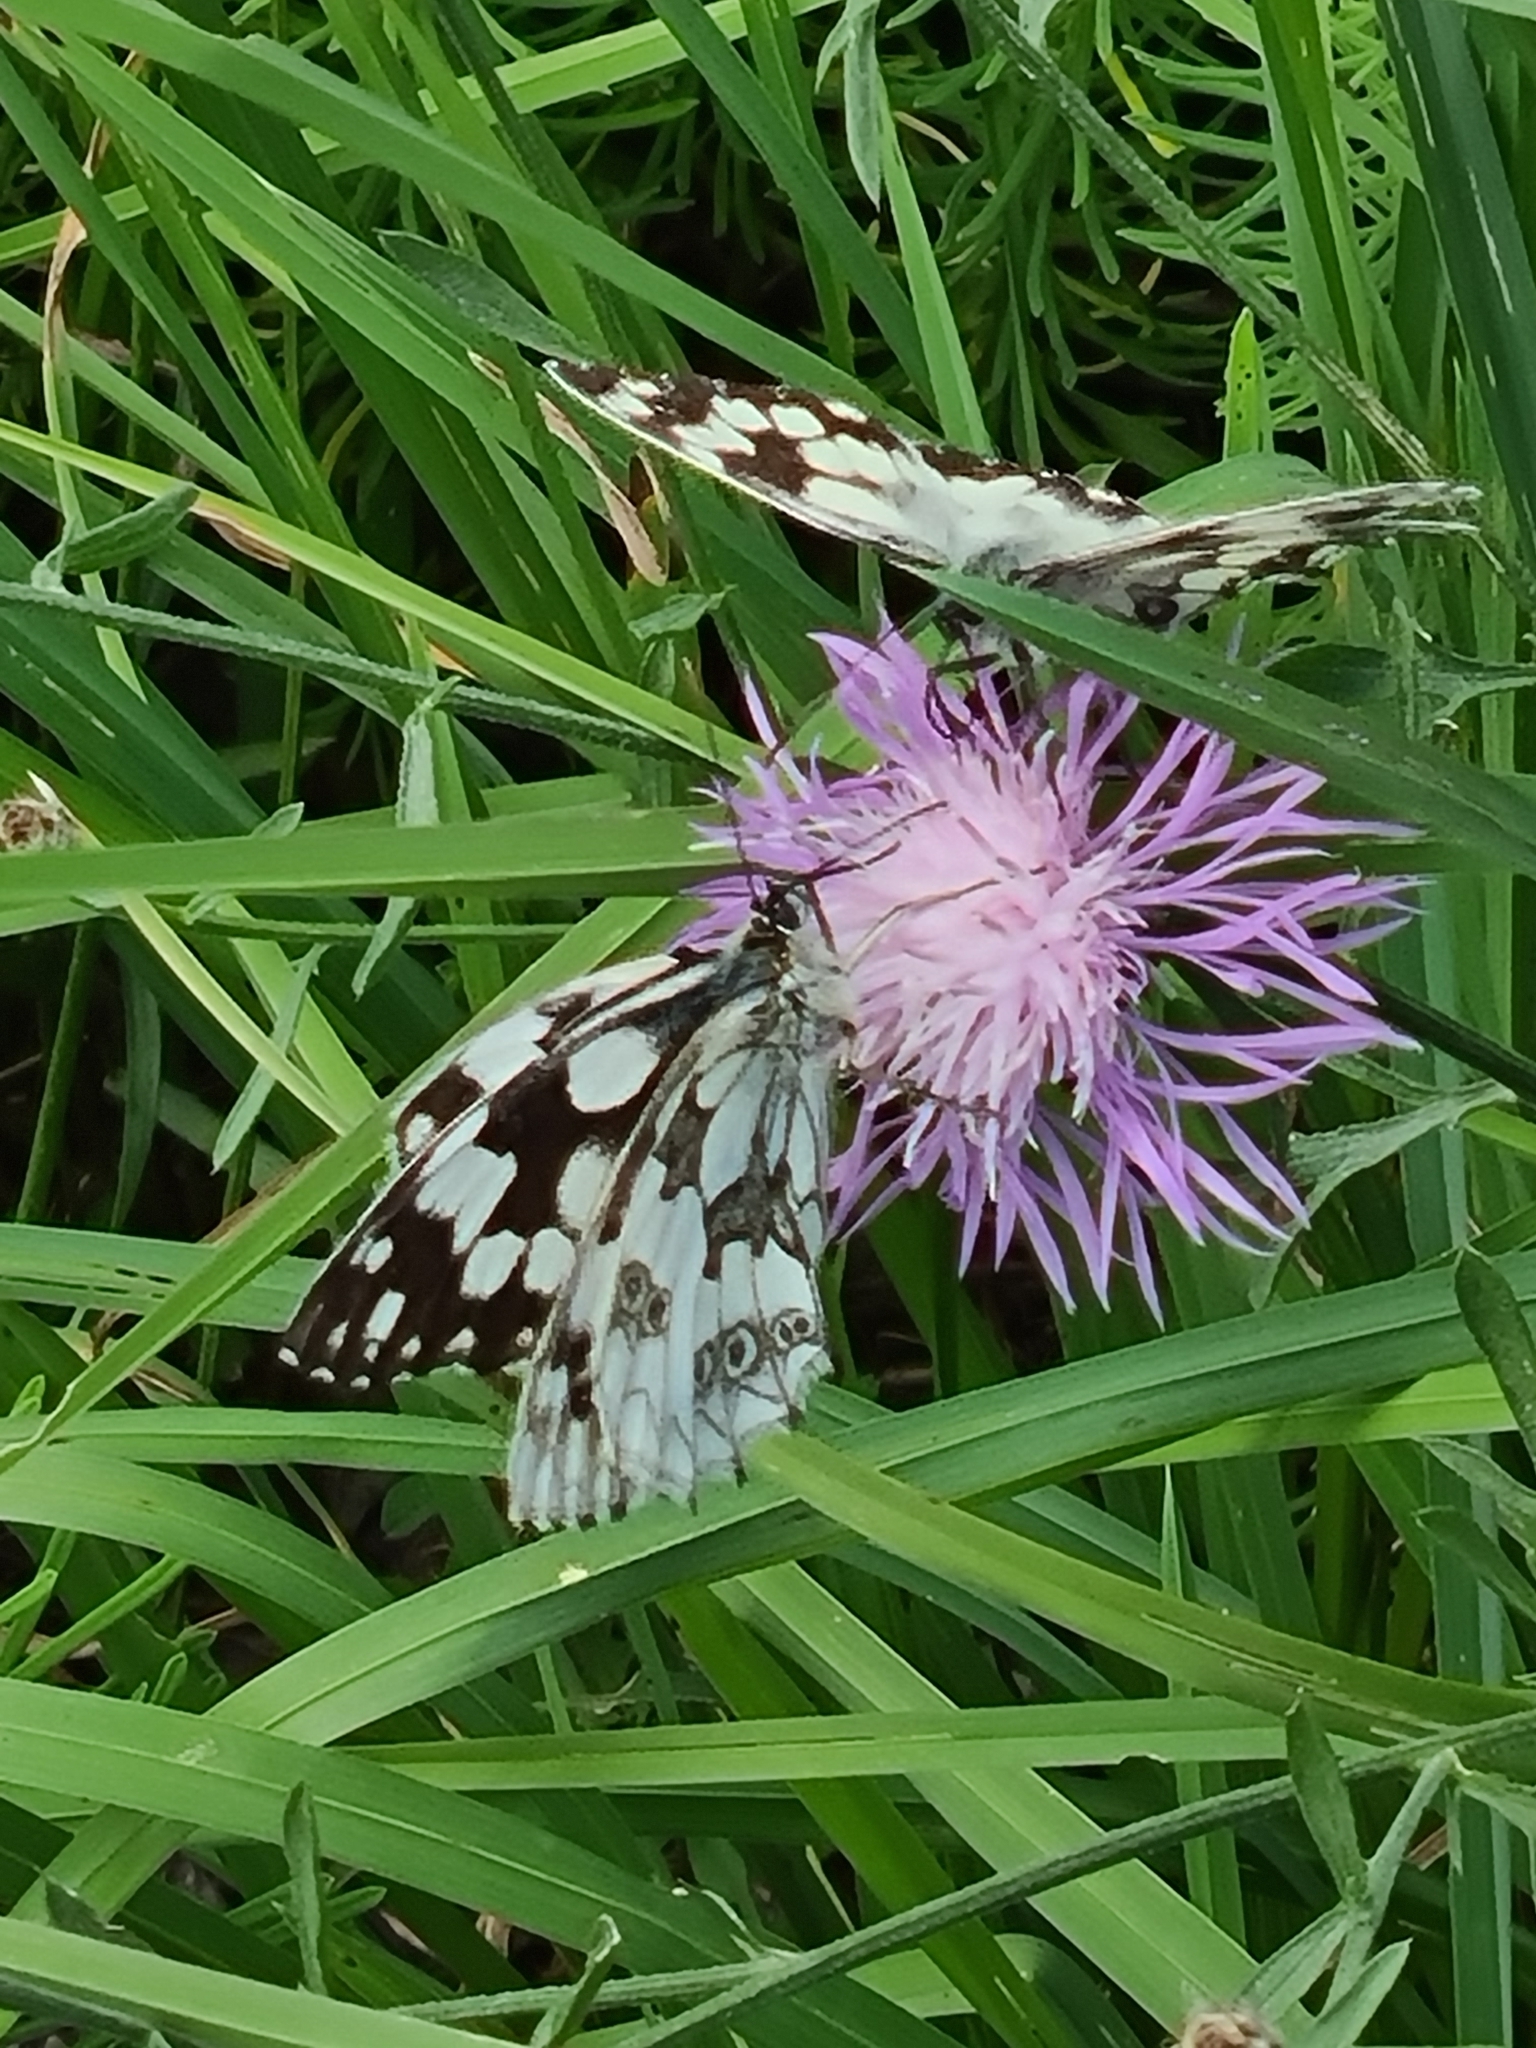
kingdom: Animalia
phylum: Arthropoda
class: Insecta
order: Lepidoptera
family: Nymphalidae
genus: Melanargia
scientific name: Melanargia galathea
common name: Marbled white
